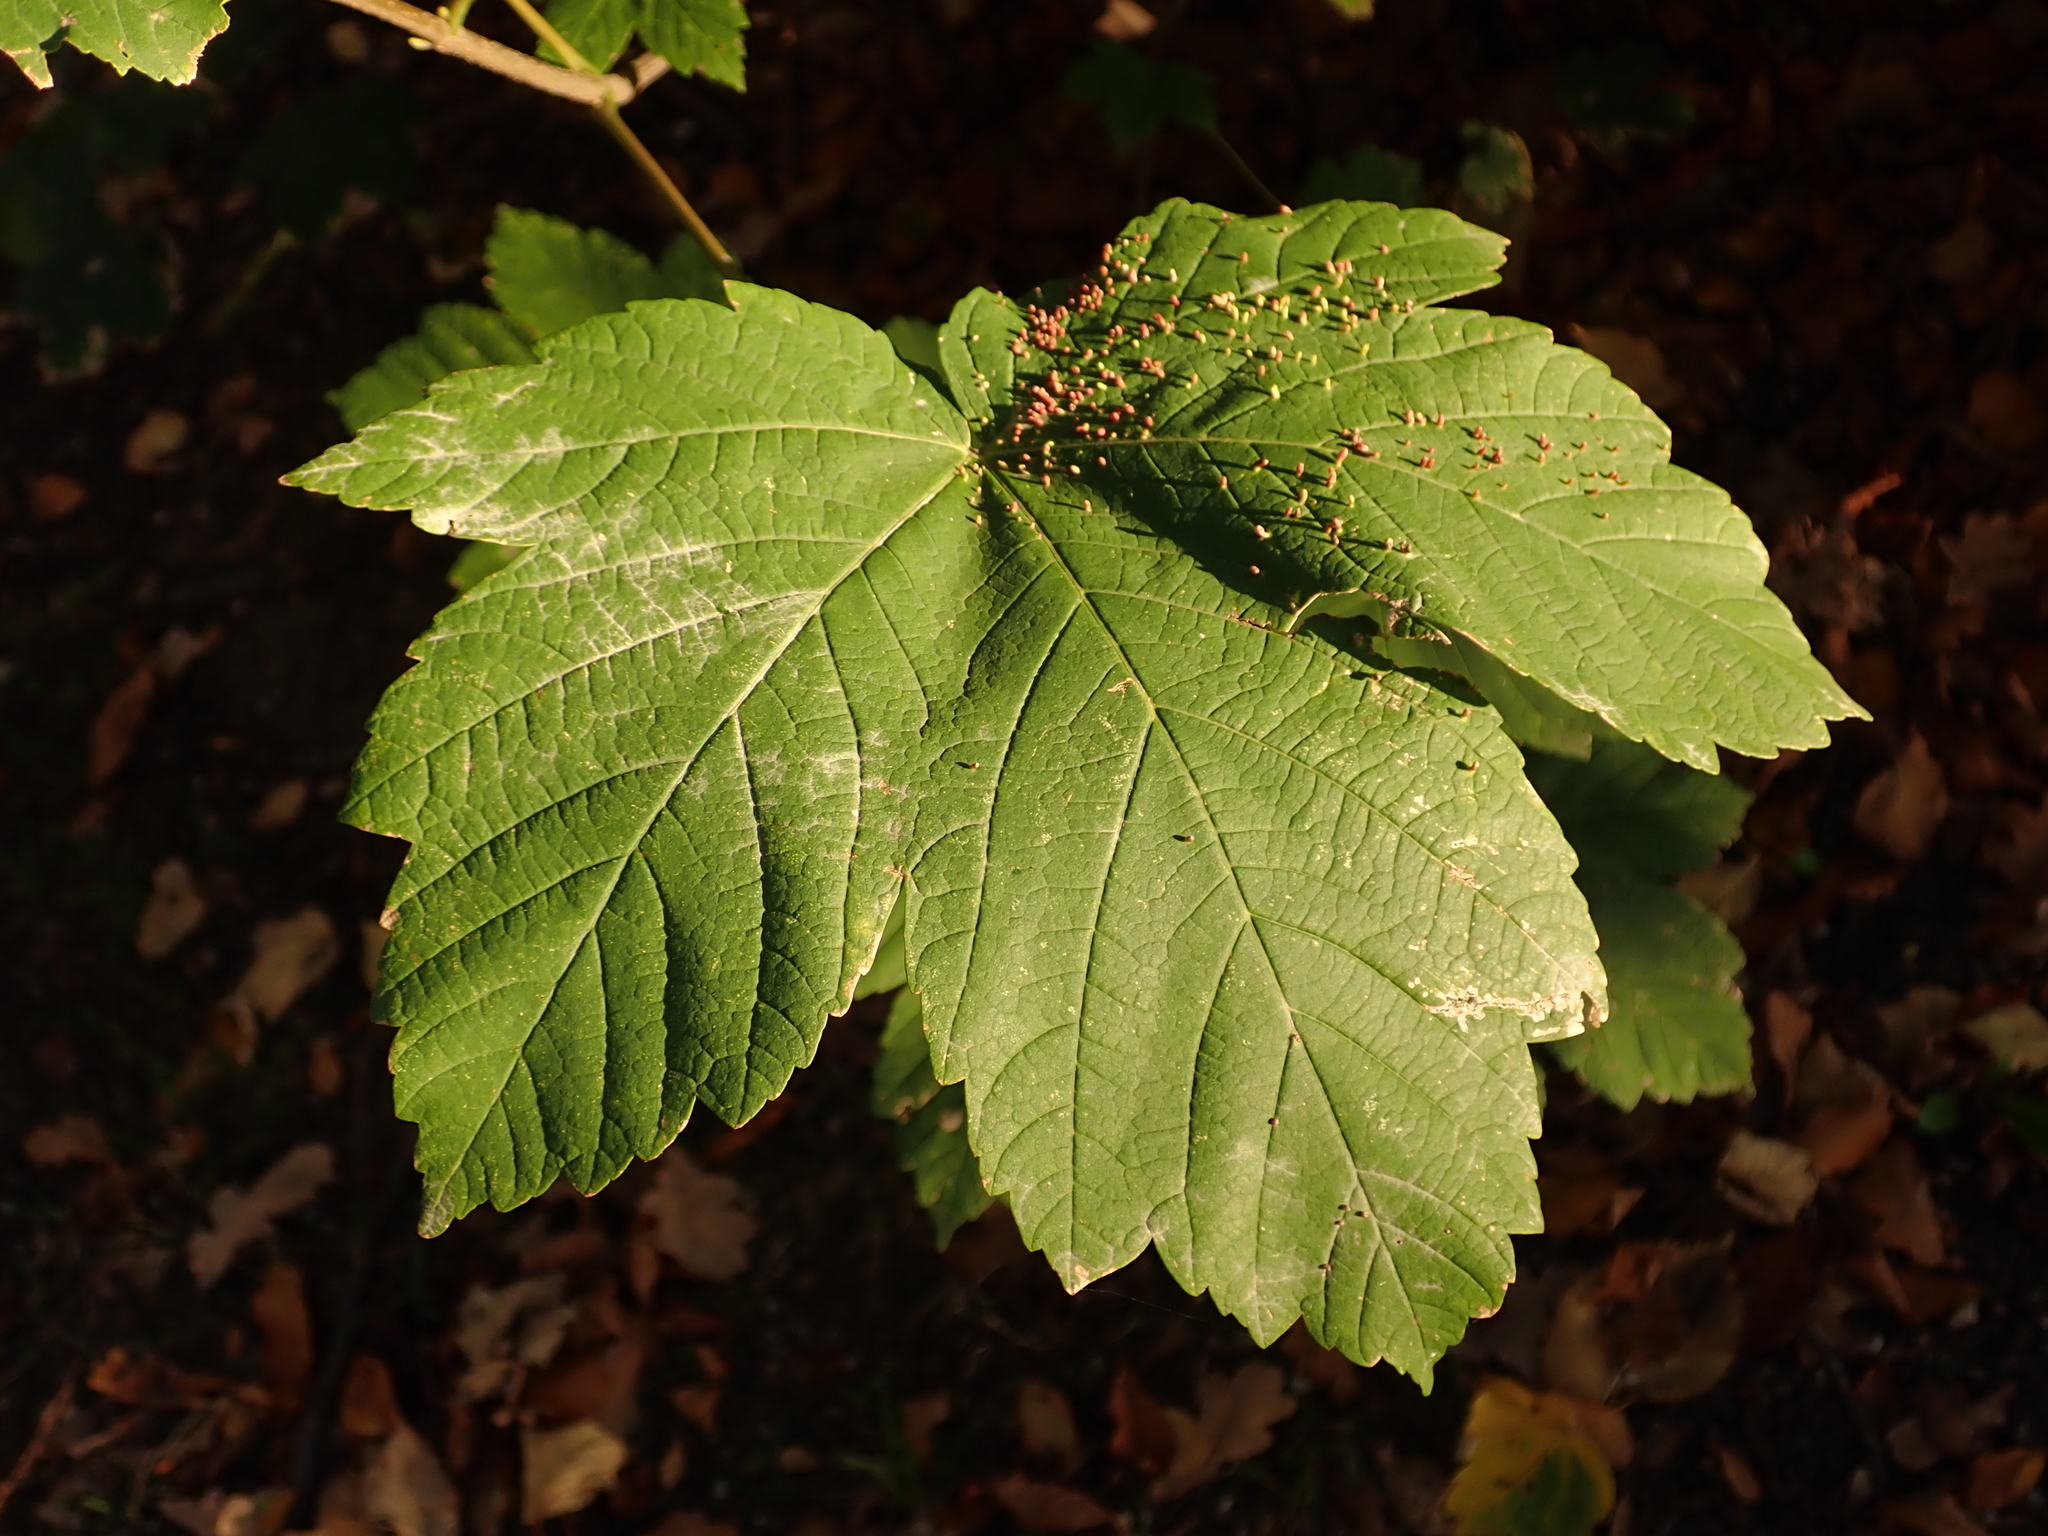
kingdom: Plantae
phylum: Tracheophyta
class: Magnoliopsida
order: Sapindales
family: Sapindaceae
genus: Acer
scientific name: Acer pseudoplatanus
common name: Sycamore
